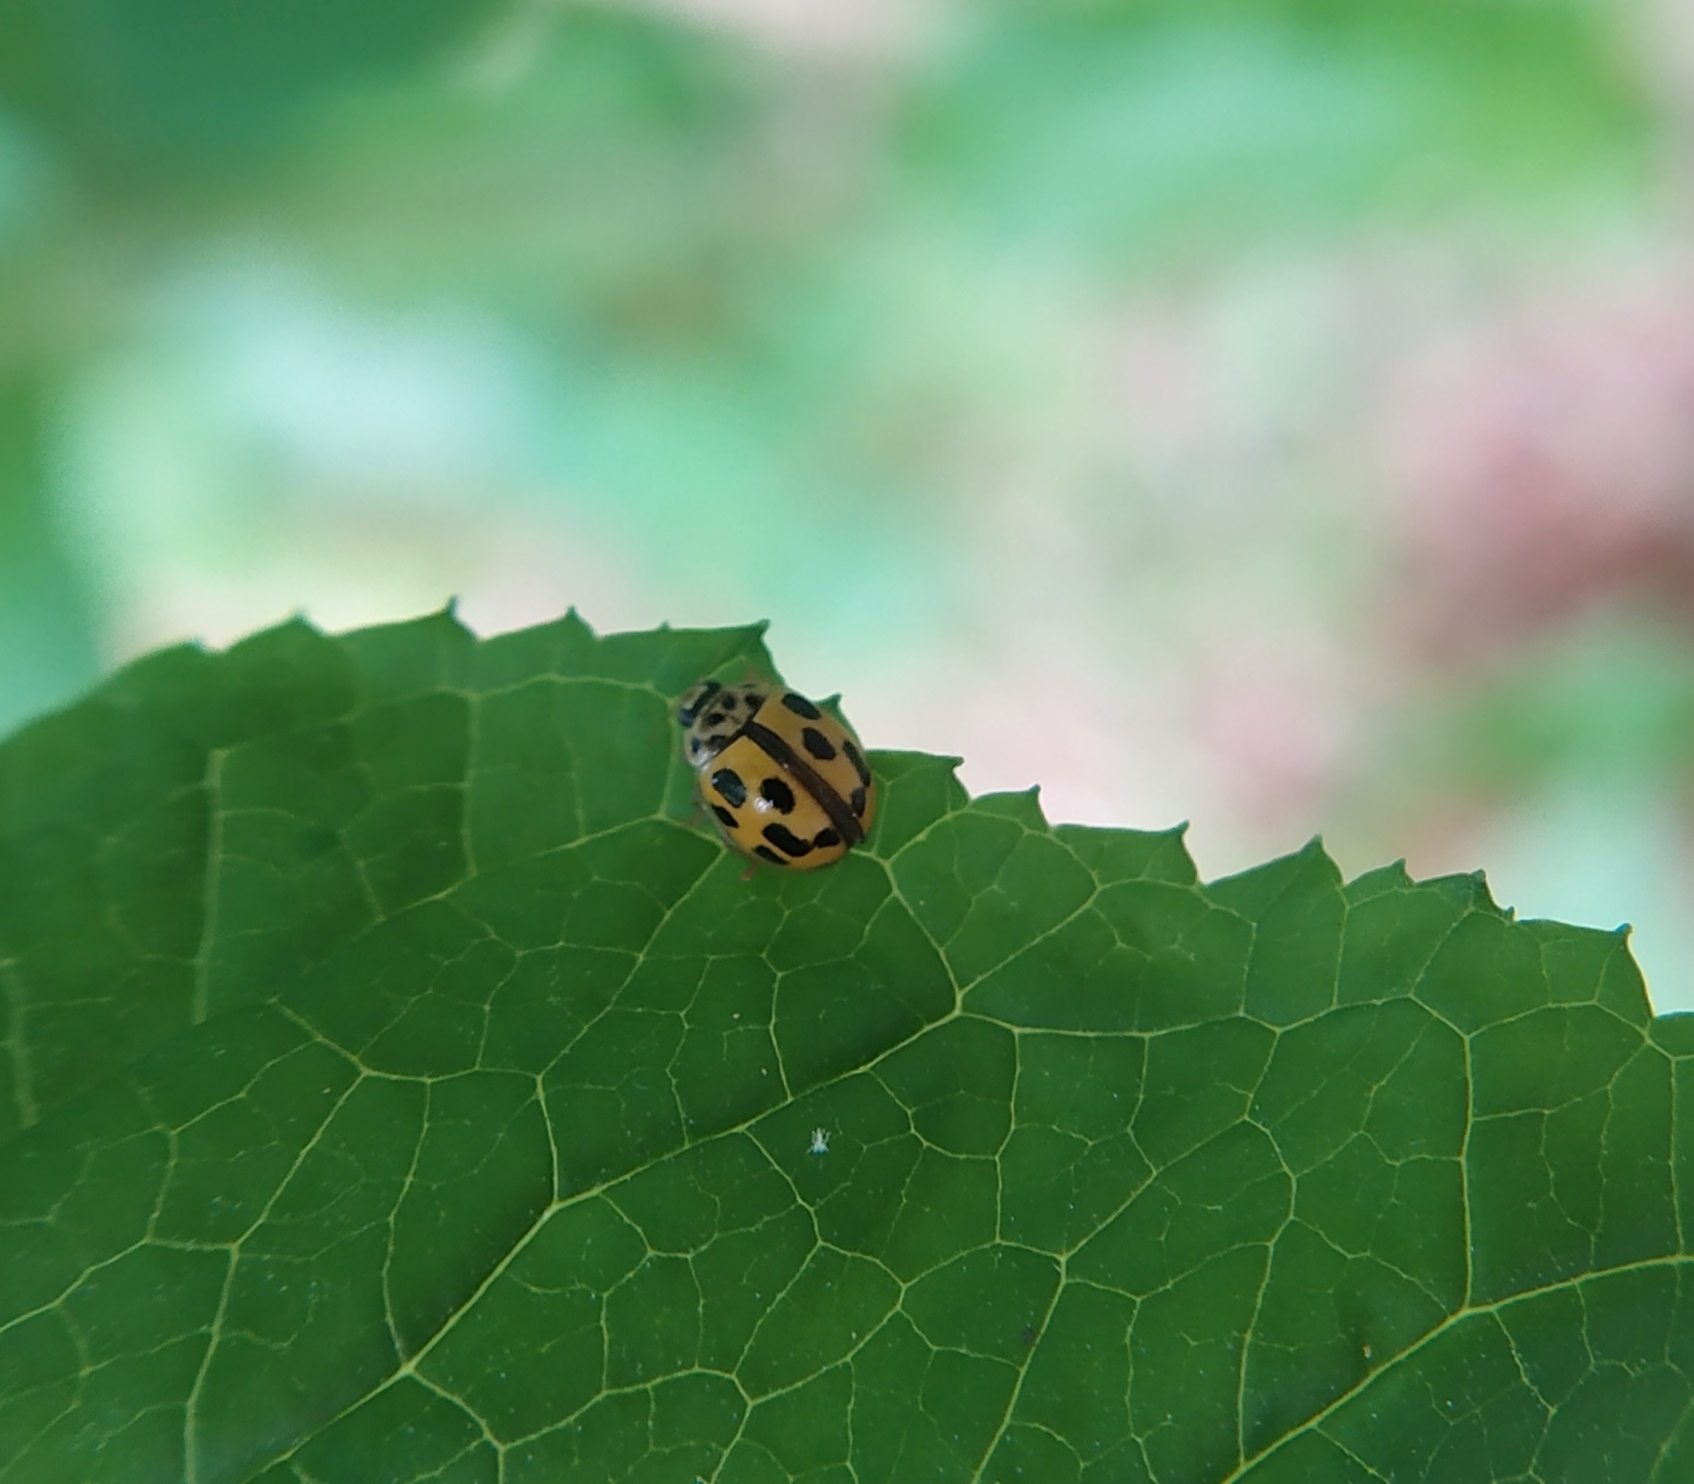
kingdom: Animalia
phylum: Arthropoda
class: Insecta
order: Coleoptera
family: Coccinellidae
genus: Propylaea
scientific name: Propylaea quatuordecimpunctata
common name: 14-spotted ladybird beetle
